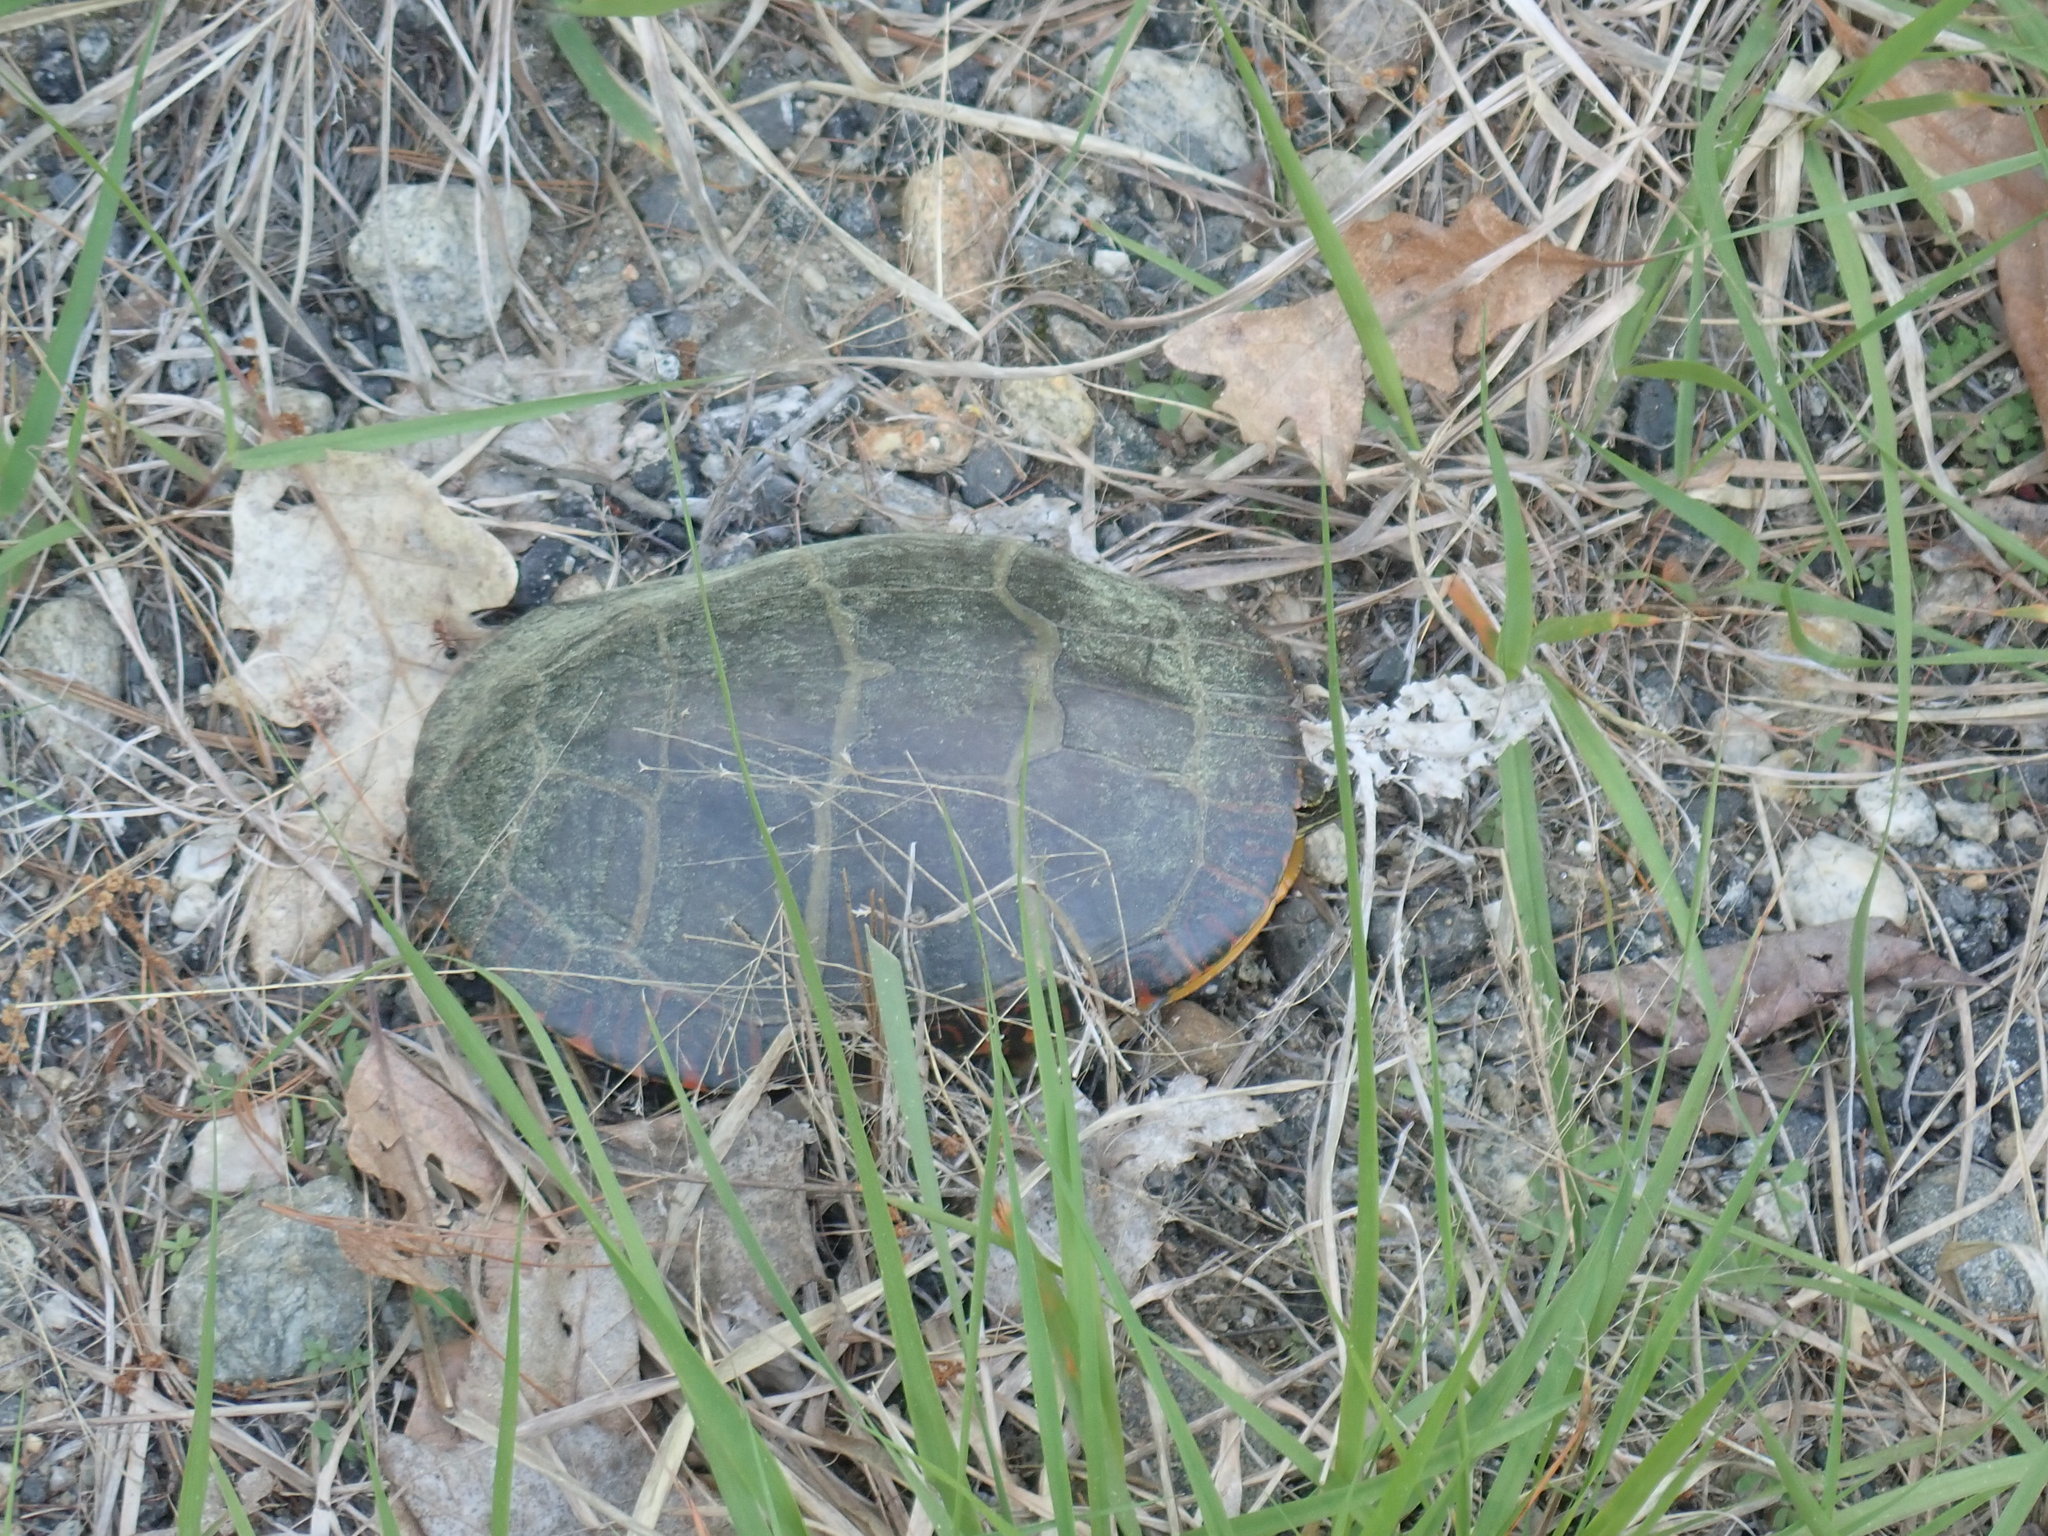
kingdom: Animalia
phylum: Chordata
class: Testudines
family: Emydidae
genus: Chrysemys
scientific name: Chrysemys picta
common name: Painted turtle
